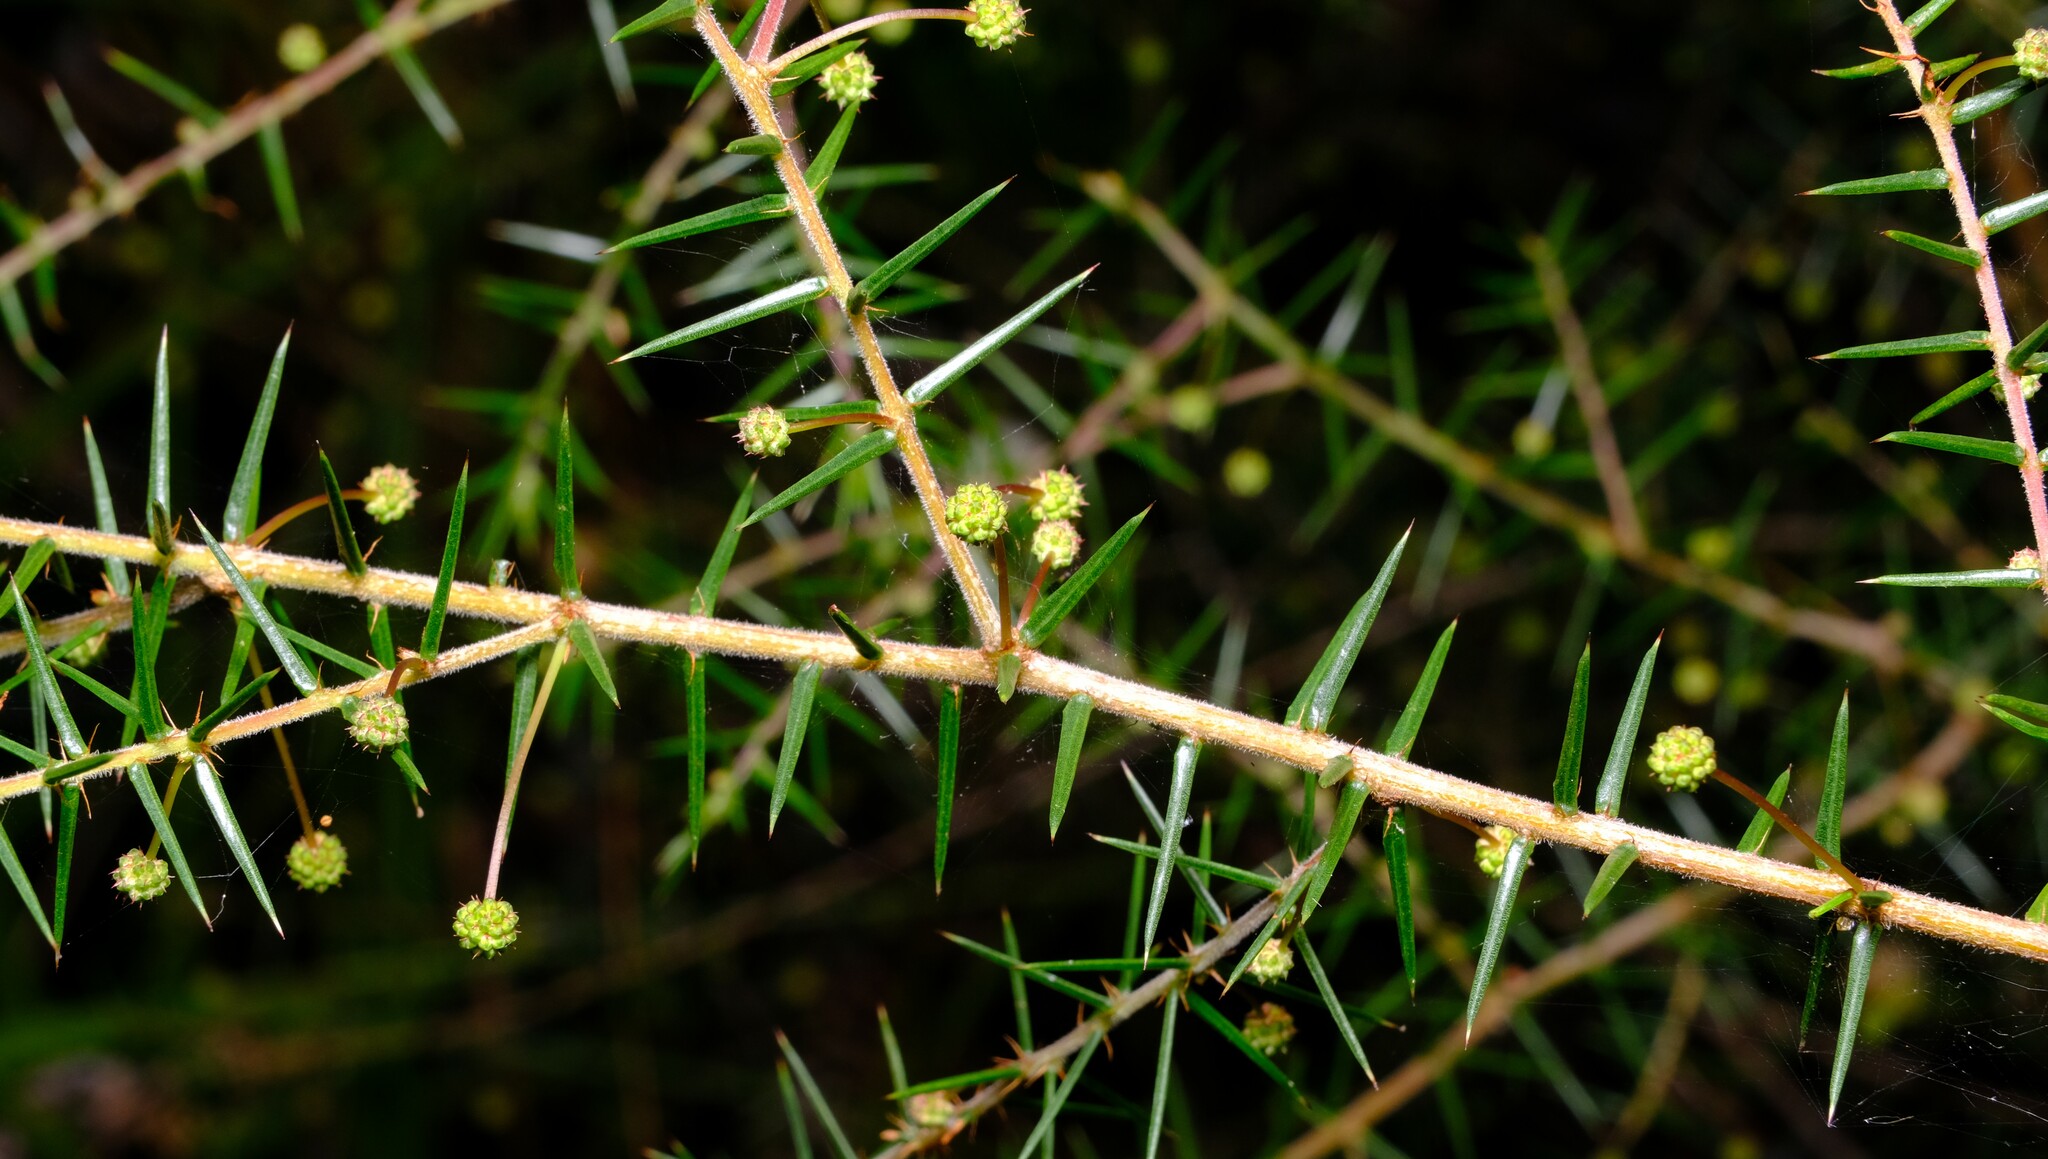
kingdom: Plantae
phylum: Tracheophyta
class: Magnoliopsida
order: Fabales
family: Fabaceae
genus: Acacia
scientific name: Acacia ulicifolia
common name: Juniper wattle
